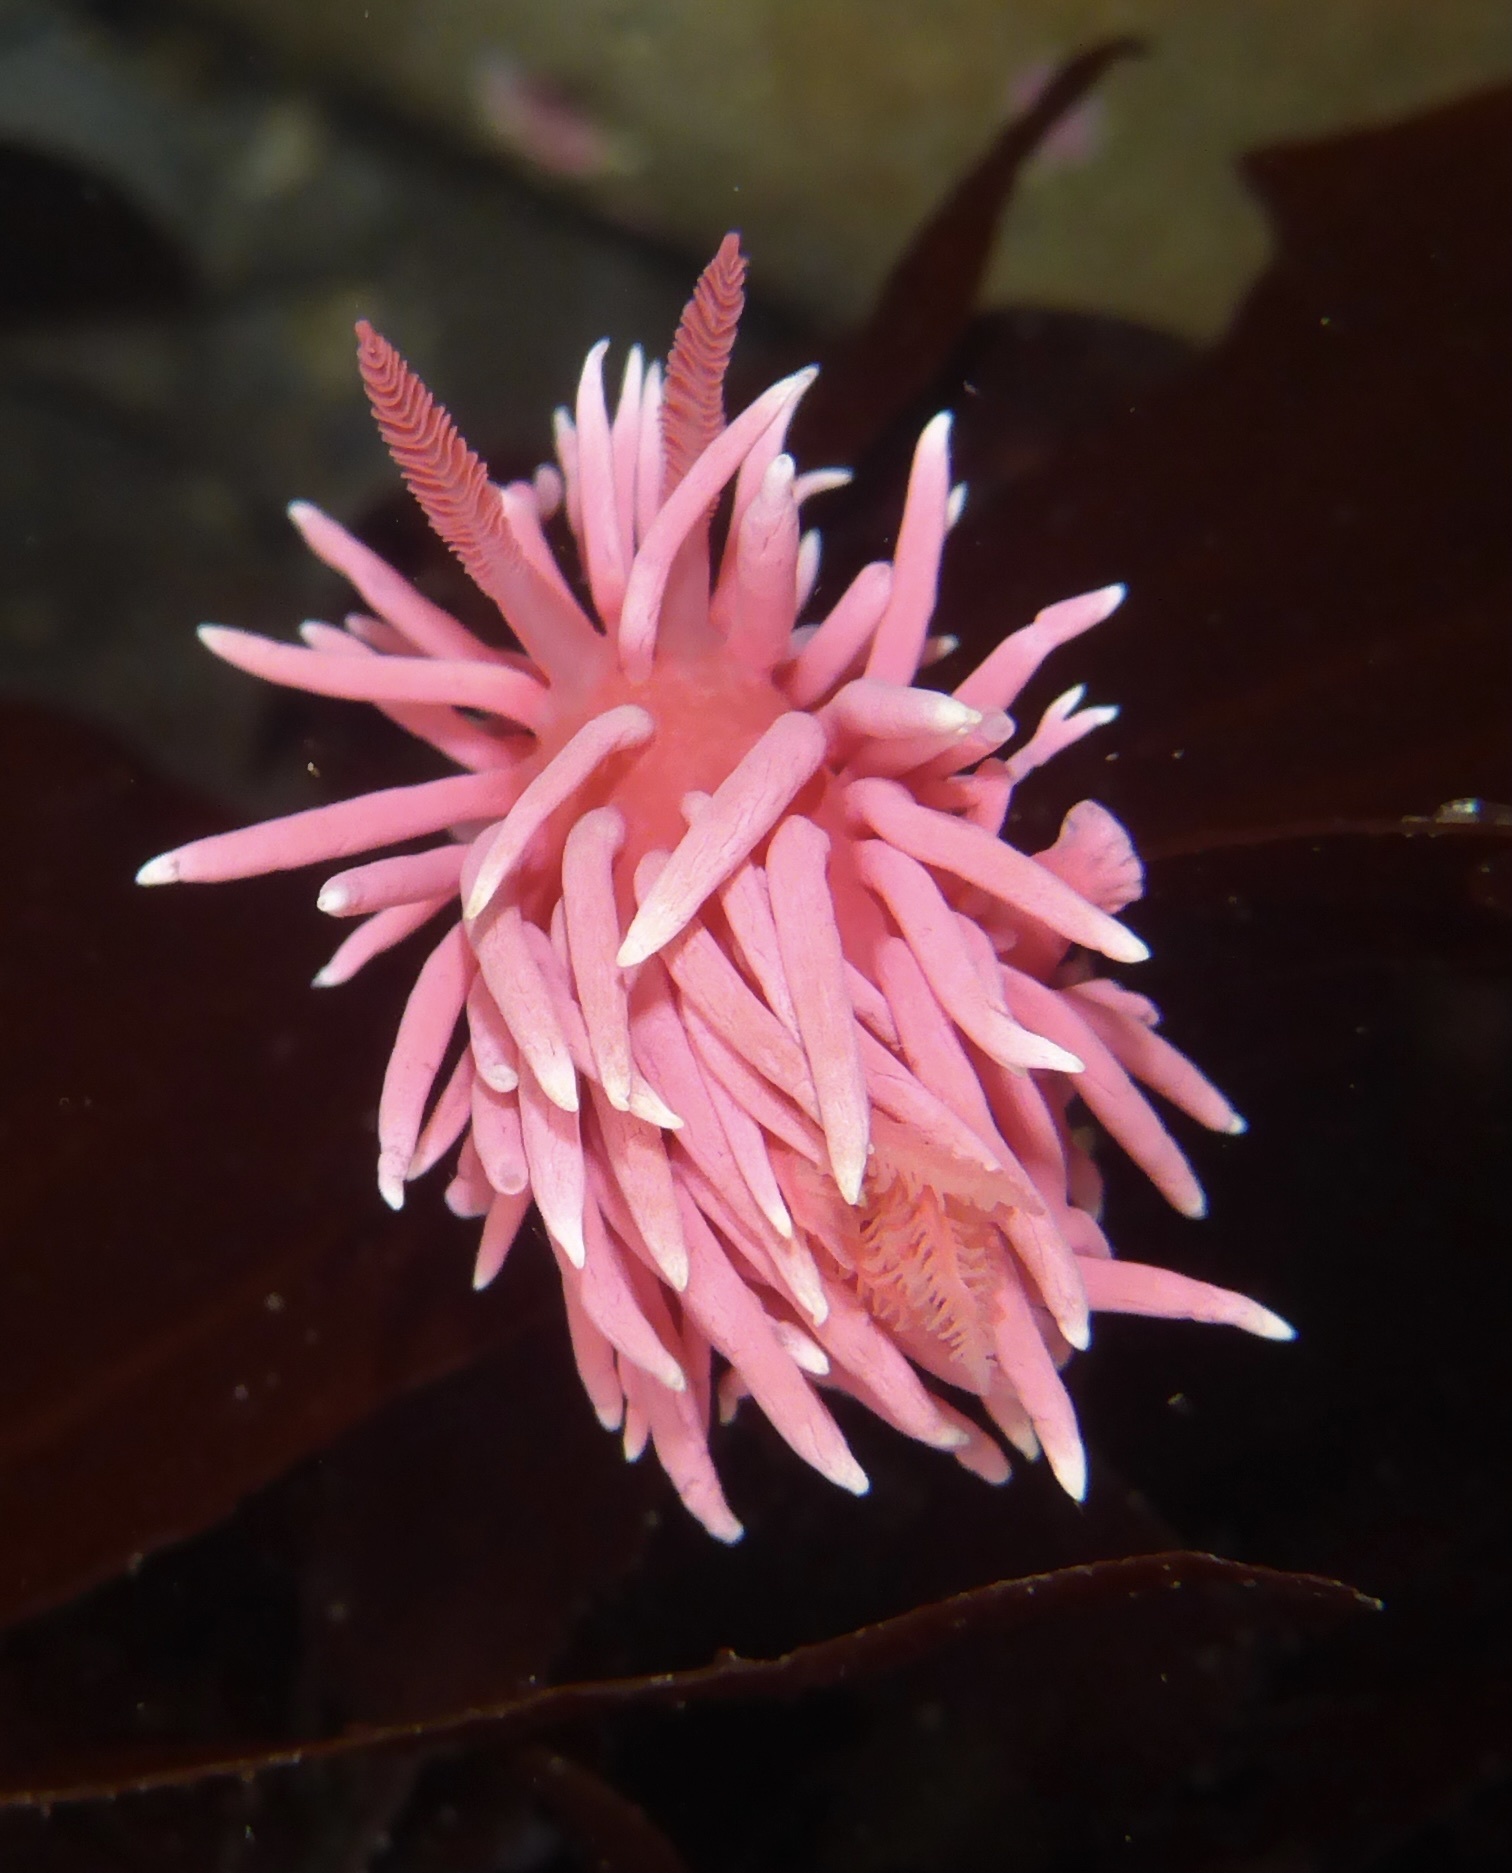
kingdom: Animalia
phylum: Mollusca
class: Gastropoda
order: Nudibranchia
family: Goniodorididae
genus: Okenia
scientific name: Okenia
